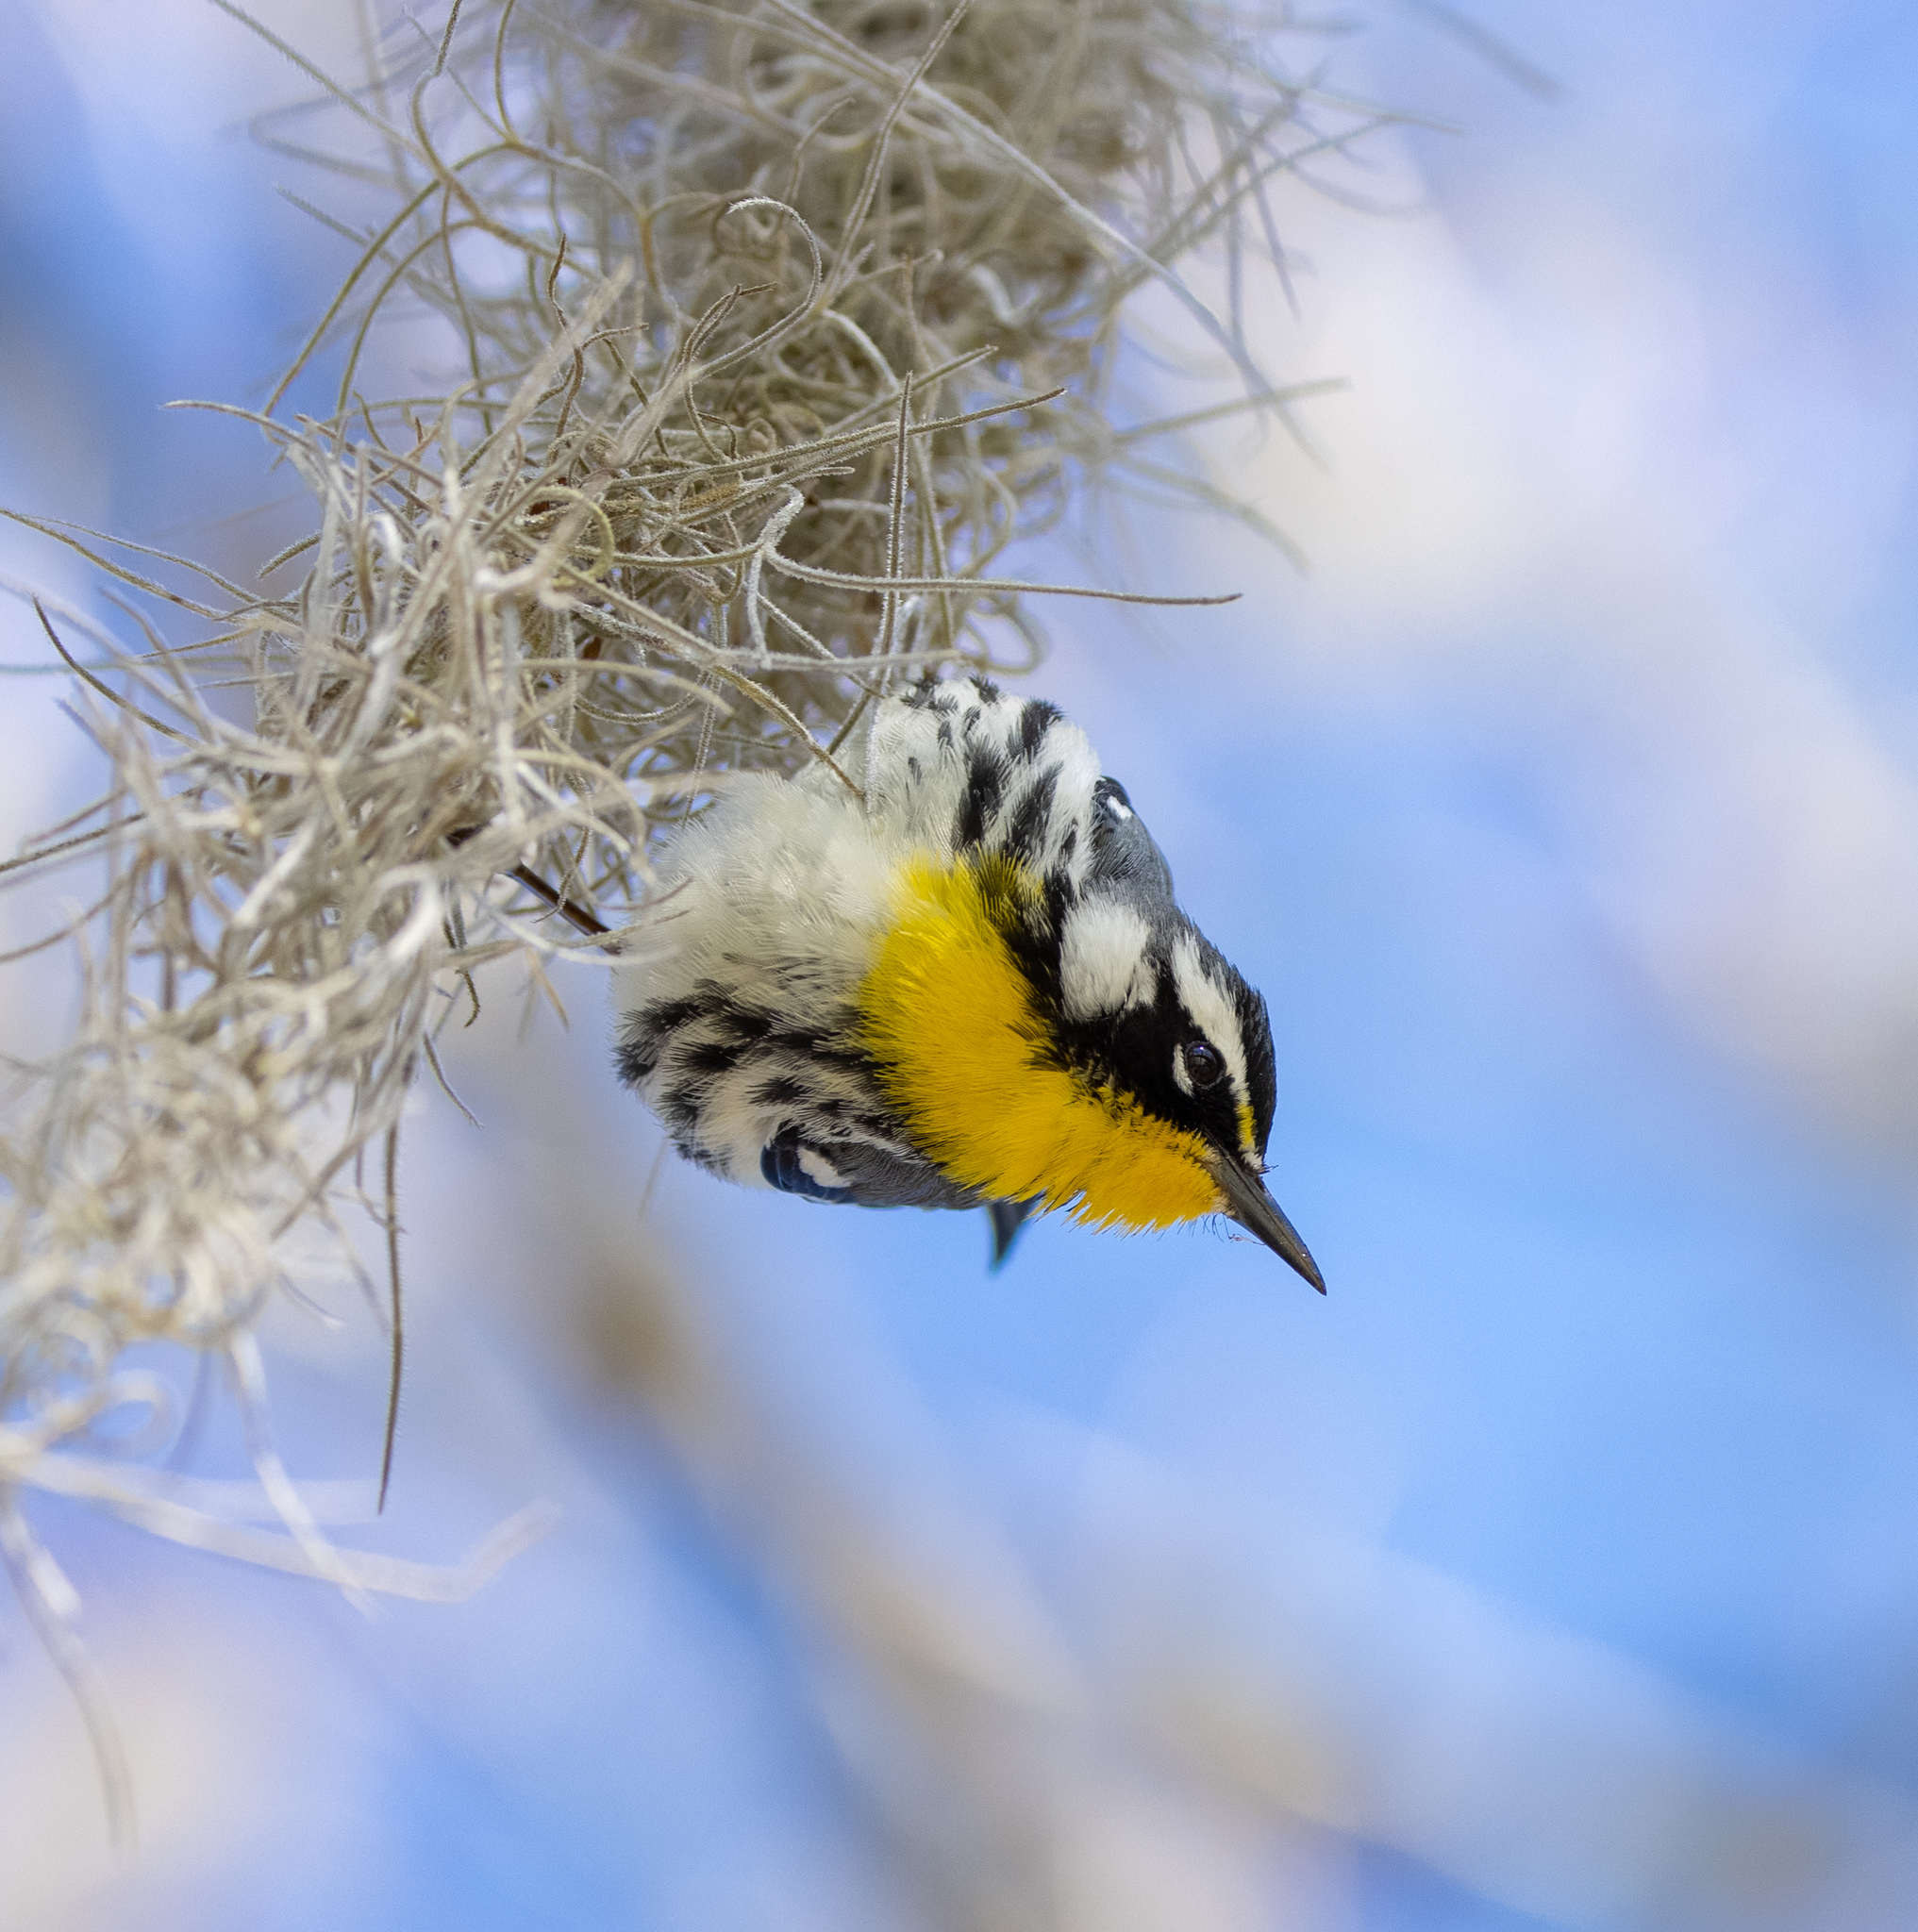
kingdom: Animalia
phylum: Chordata
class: Aves
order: Passeriformes
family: Parulidae
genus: Setophaga
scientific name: Setophaga dominica
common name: Yellow-throated warbler
